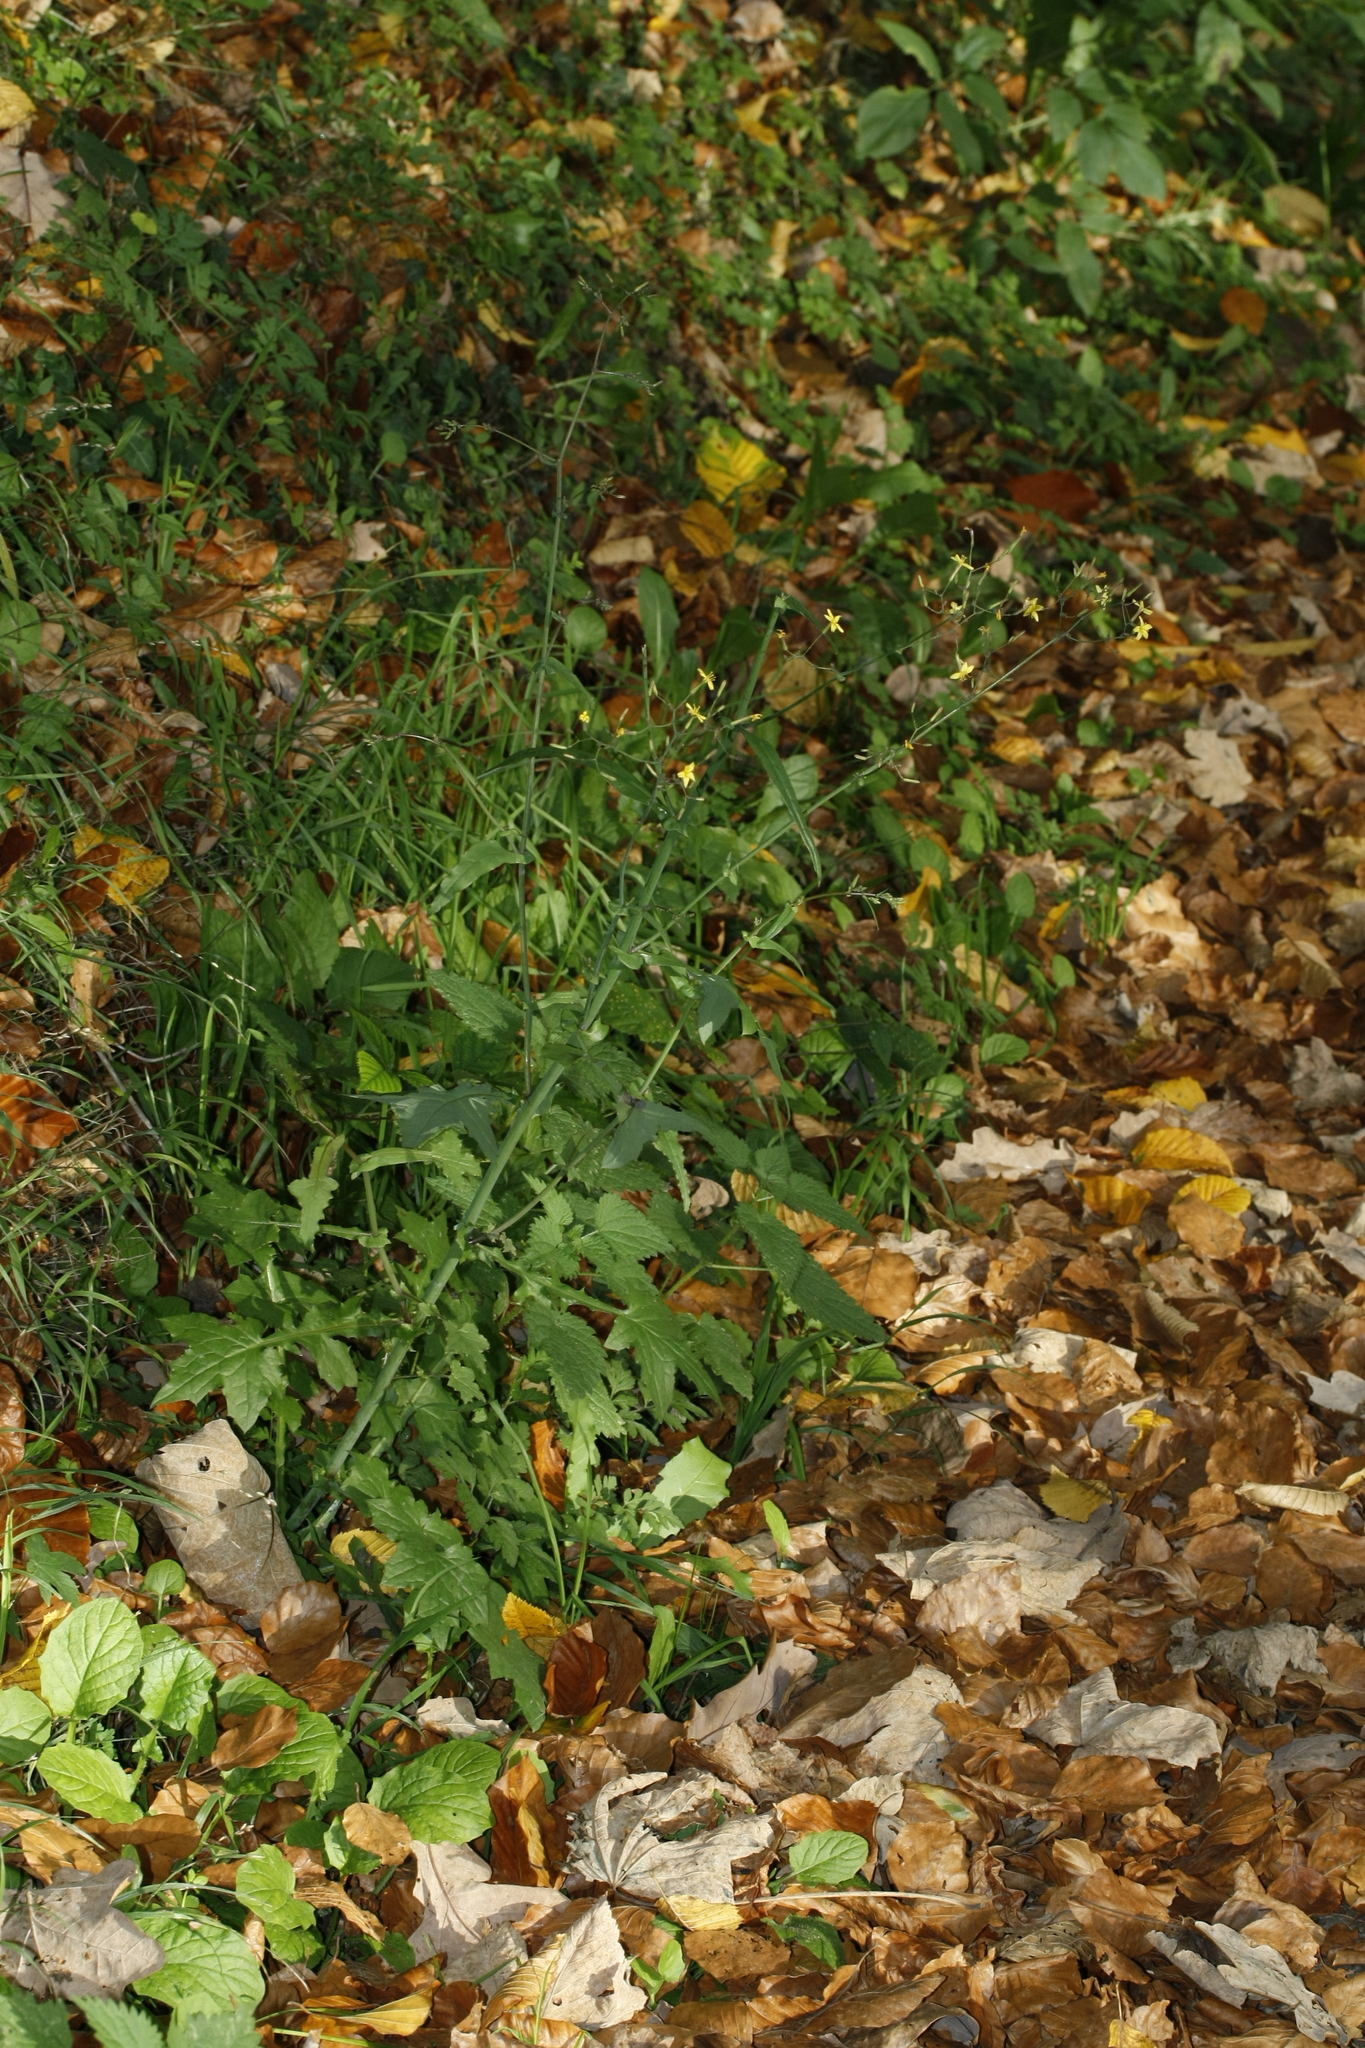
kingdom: Plantae
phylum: Tracheophyta
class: Magnoliopsida
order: Asterales
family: Asteraceae
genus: Mycelis
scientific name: Mycelis muralis
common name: Wall lettuce
